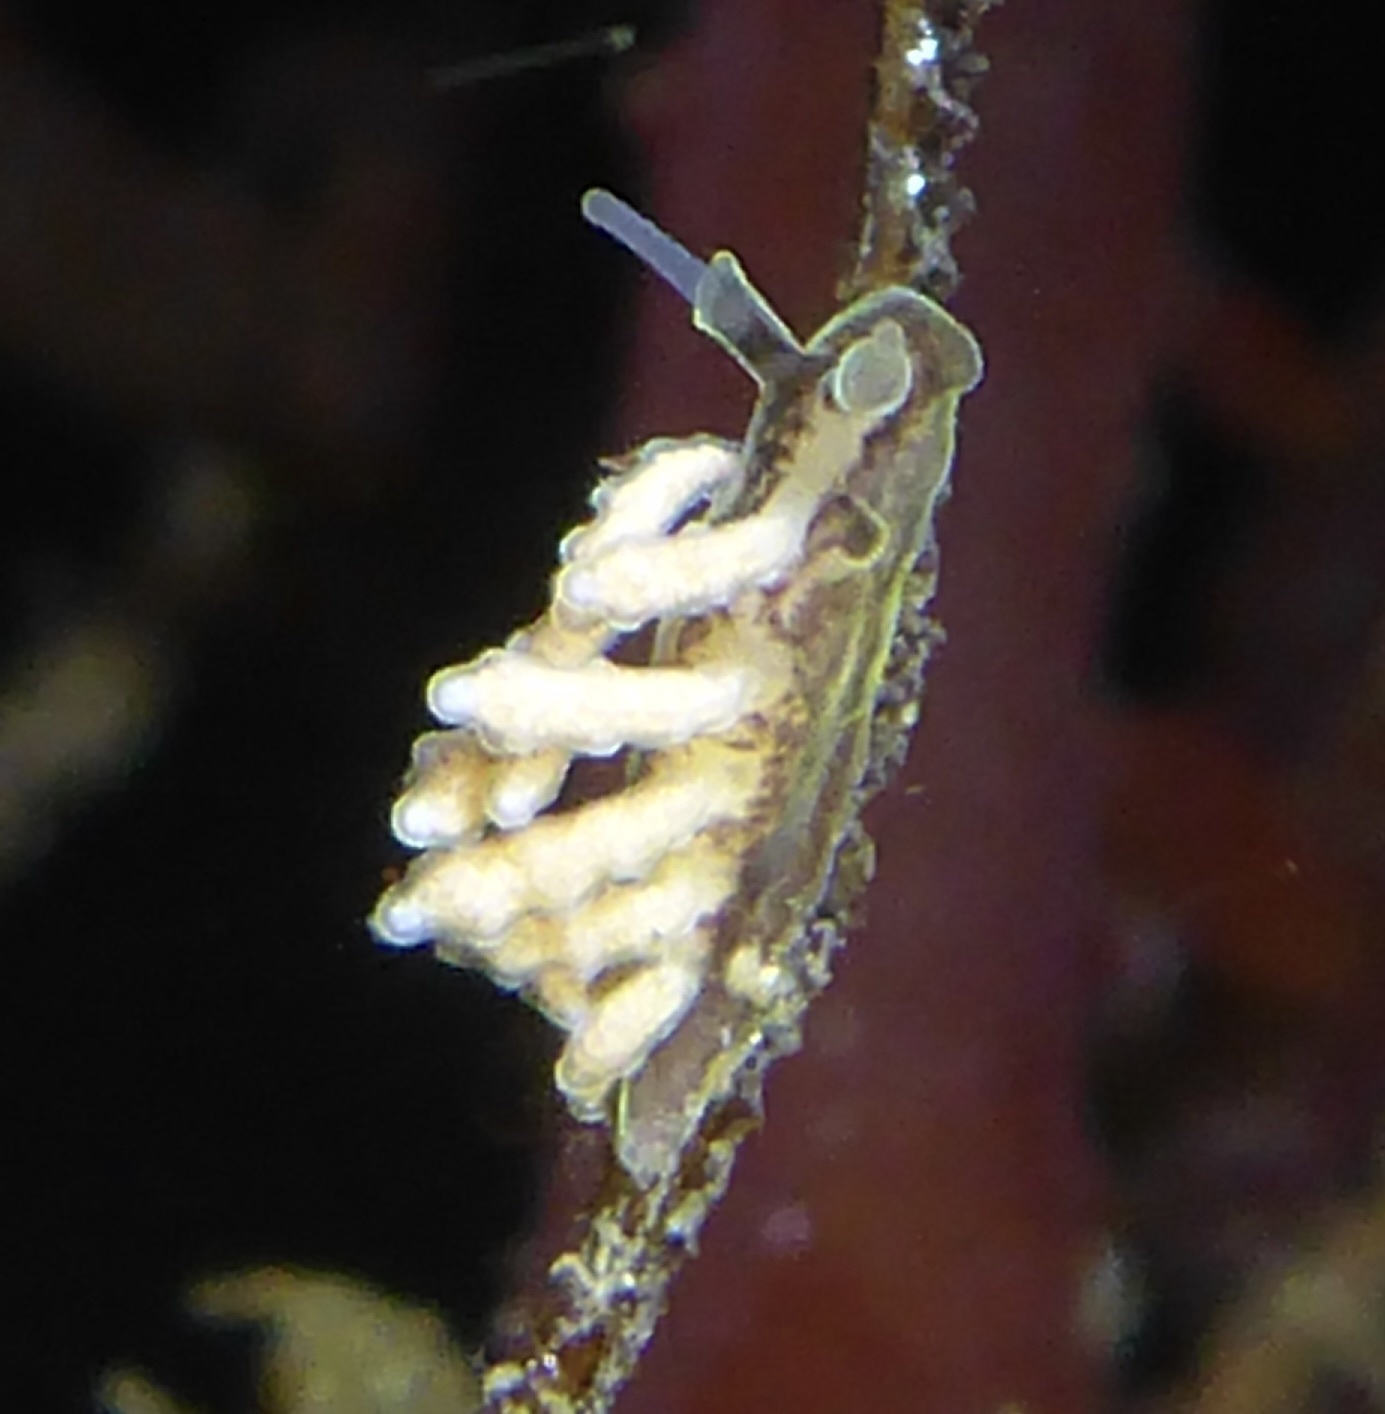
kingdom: Animalia
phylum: Mollusca
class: Gastropoda
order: Nudibranchia
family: Dotidae
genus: Doto
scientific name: Doto columbiana
